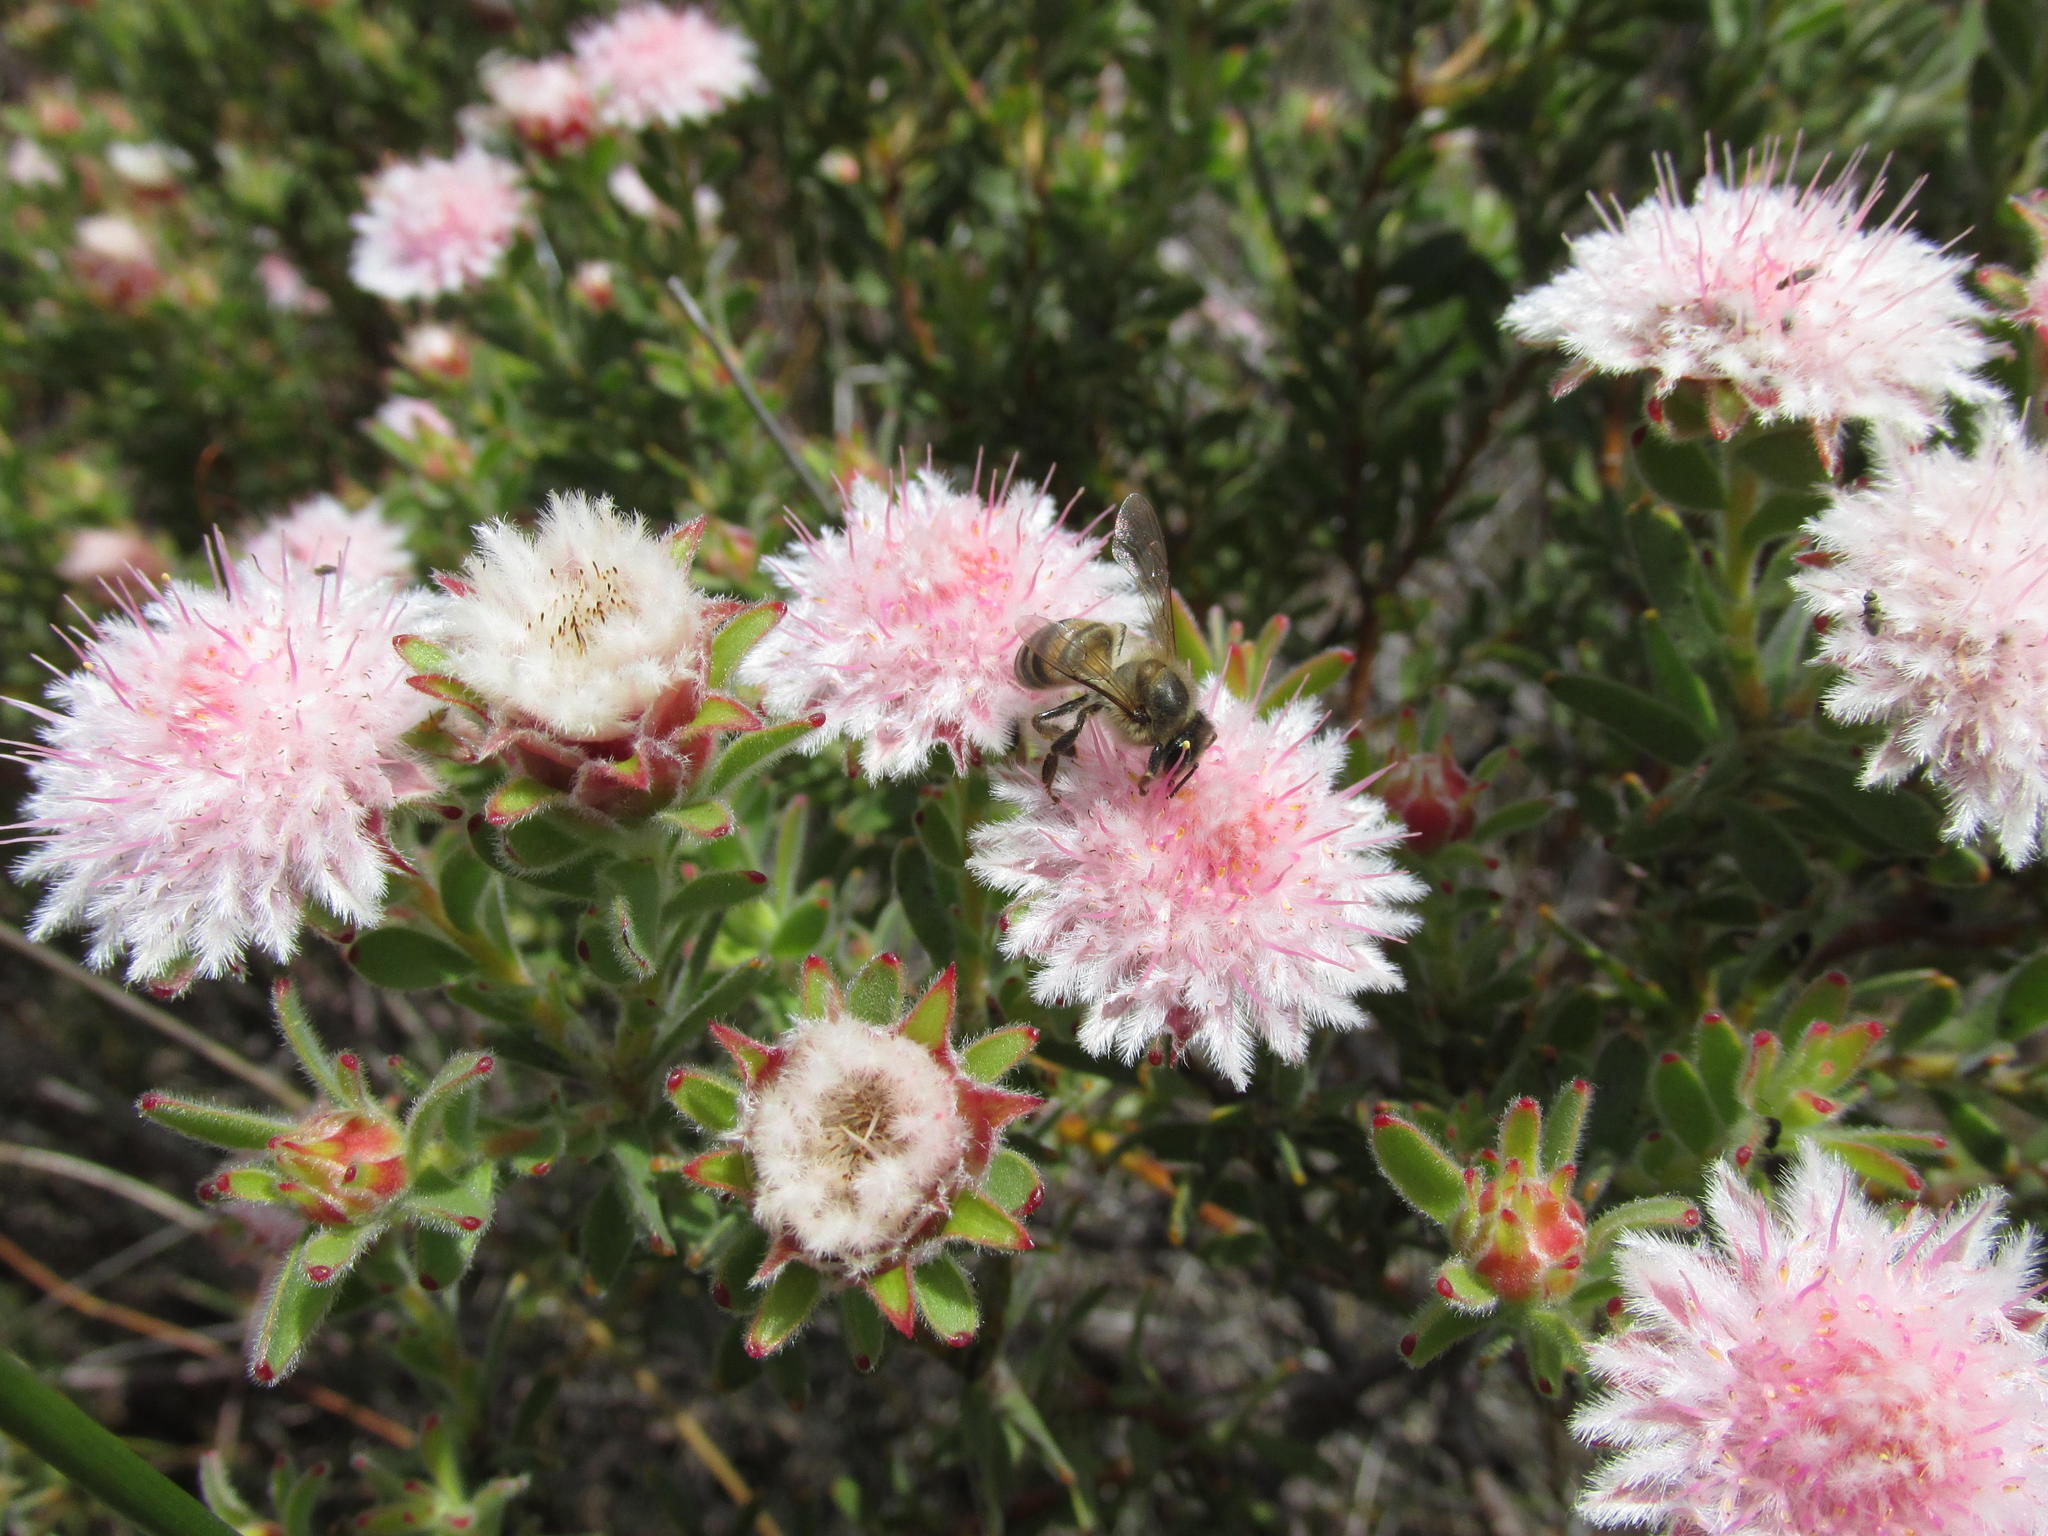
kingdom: Plantae
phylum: Tracheophyta
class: Magnoliopsida
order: Proteales
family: Proteaceae
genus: Diastella
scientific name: Diastella parilis
